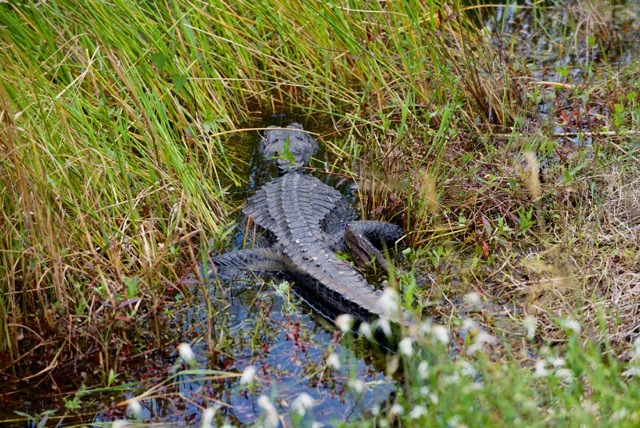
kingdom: Animalia
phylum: Chordata
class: Crocodylia
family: Alligatoridae
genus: Alligator
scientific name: Alligator mississippiensis
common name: American alligator
